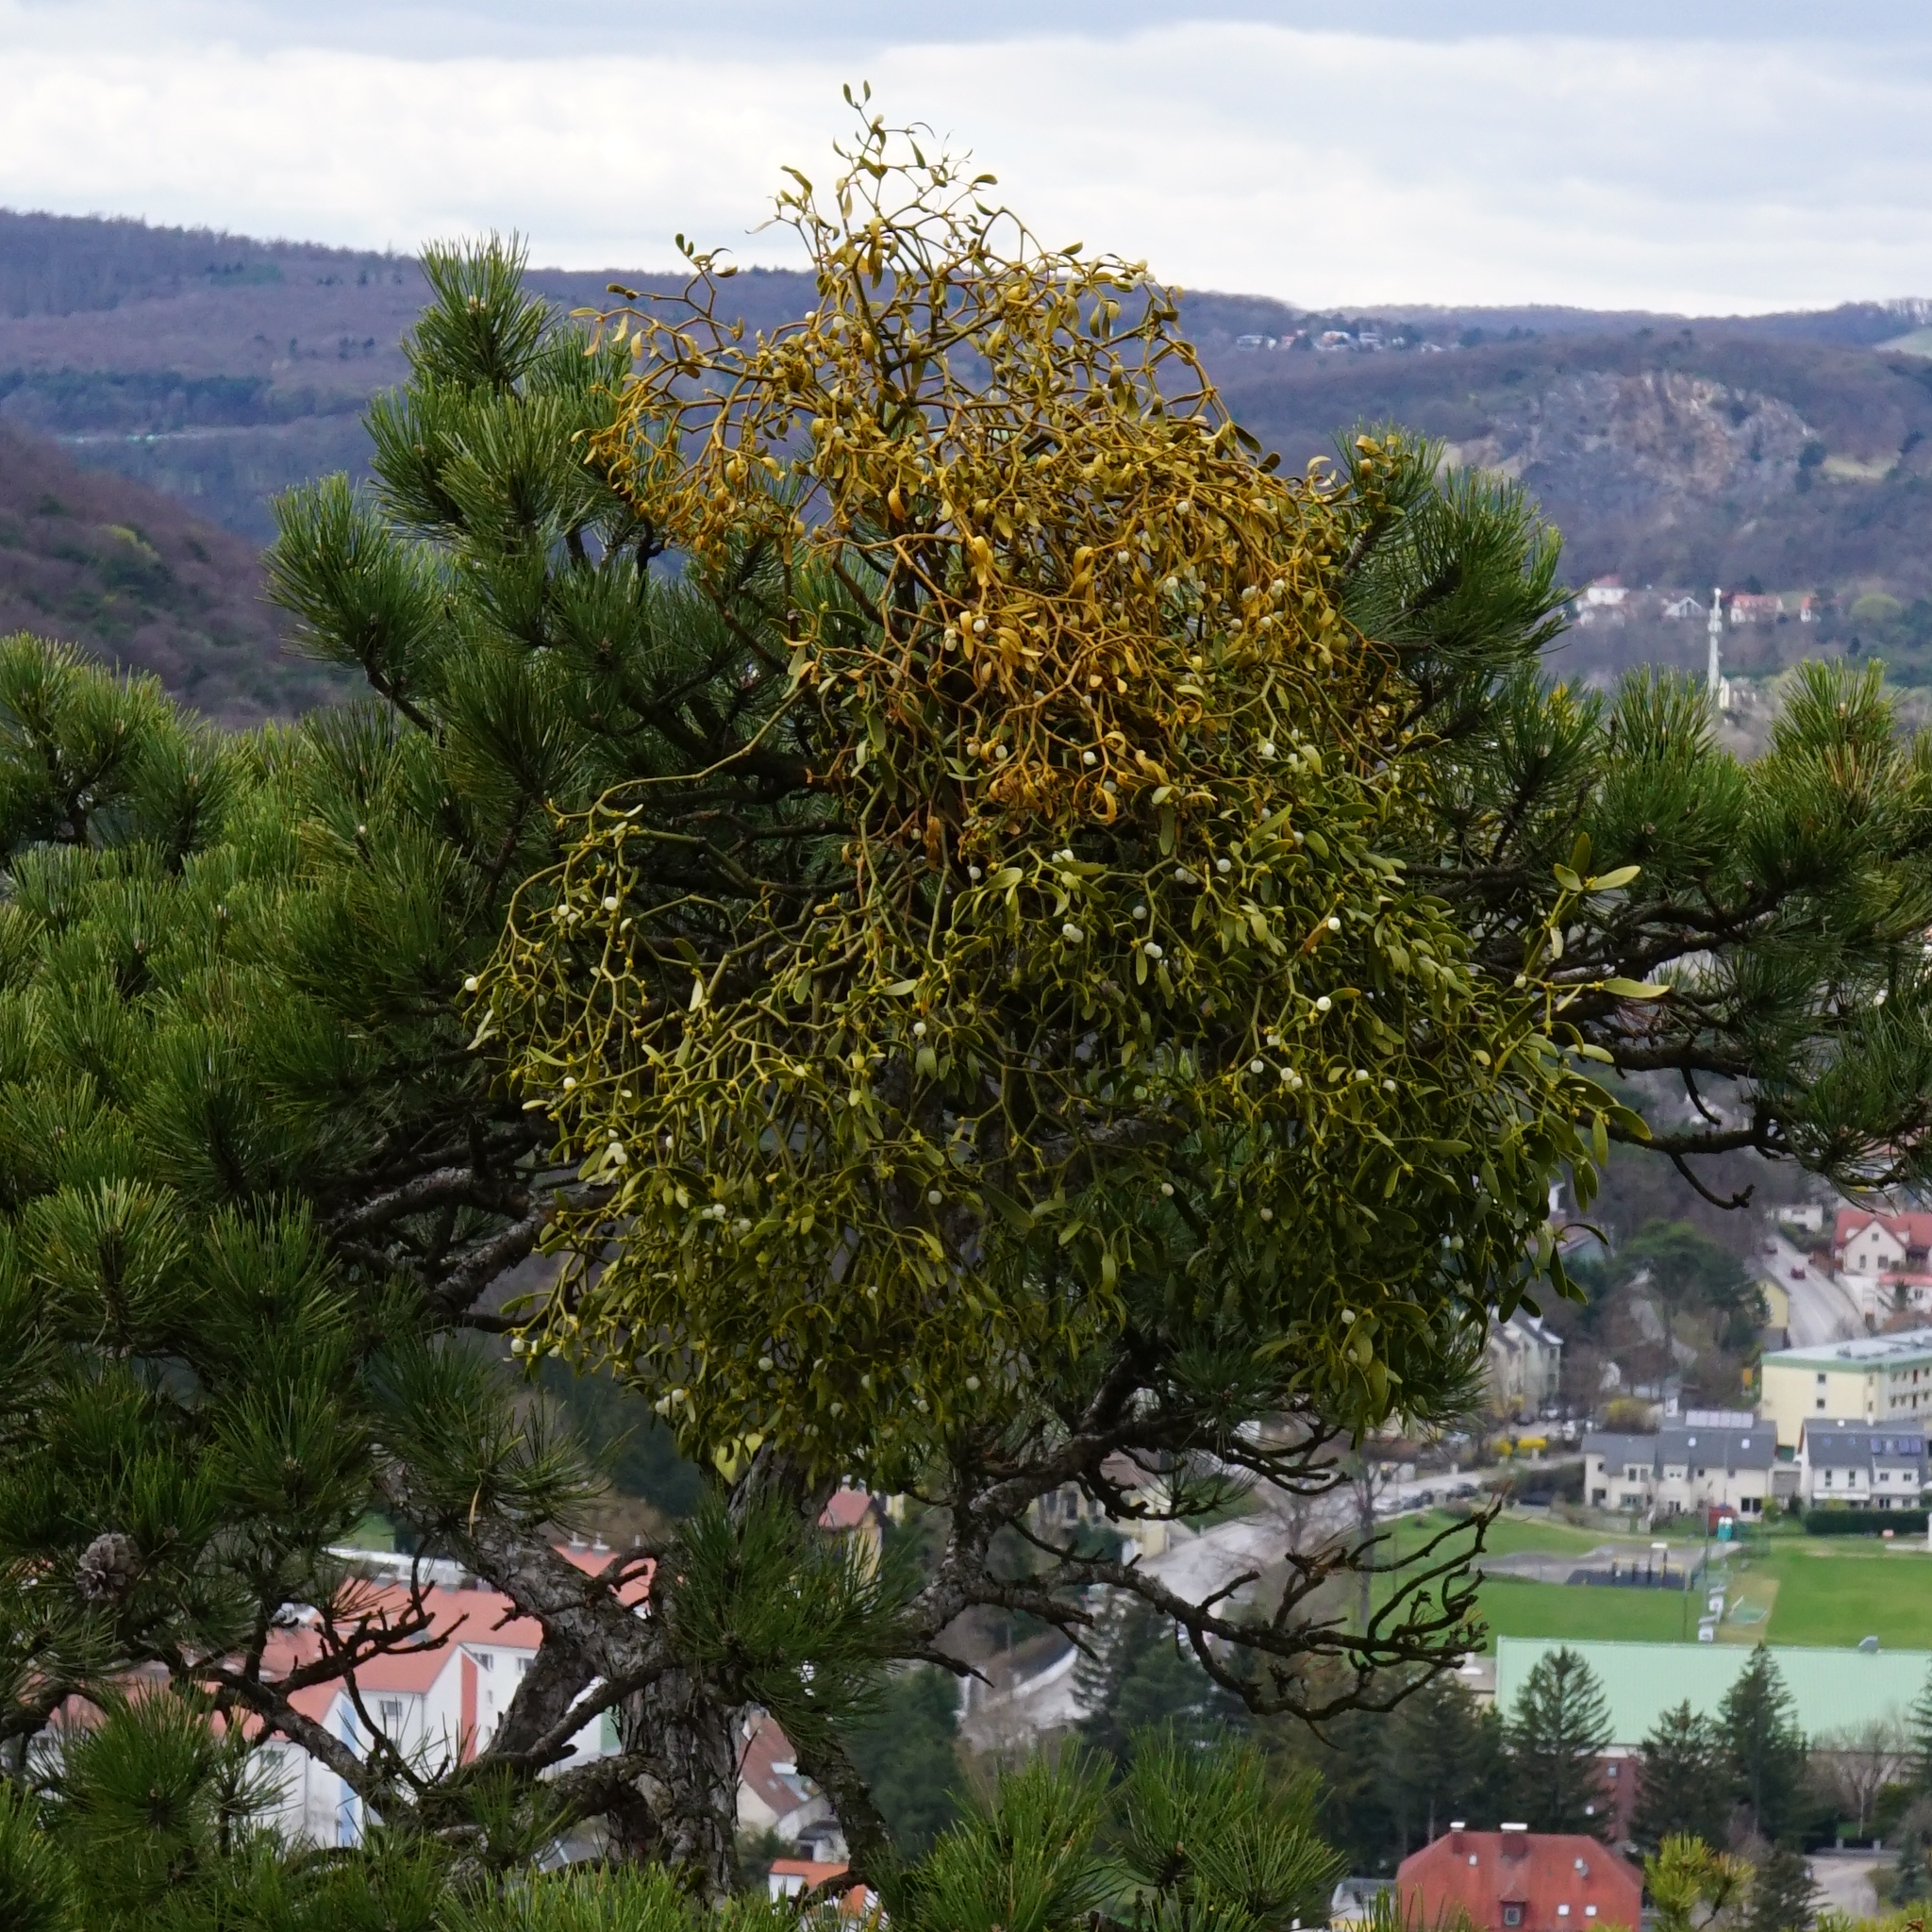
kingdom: Plantae
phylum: Tracheophyta
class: Magnoliopsida
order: Santalales
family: Viscaceae
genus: Viscum
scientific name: Viscum laxum
